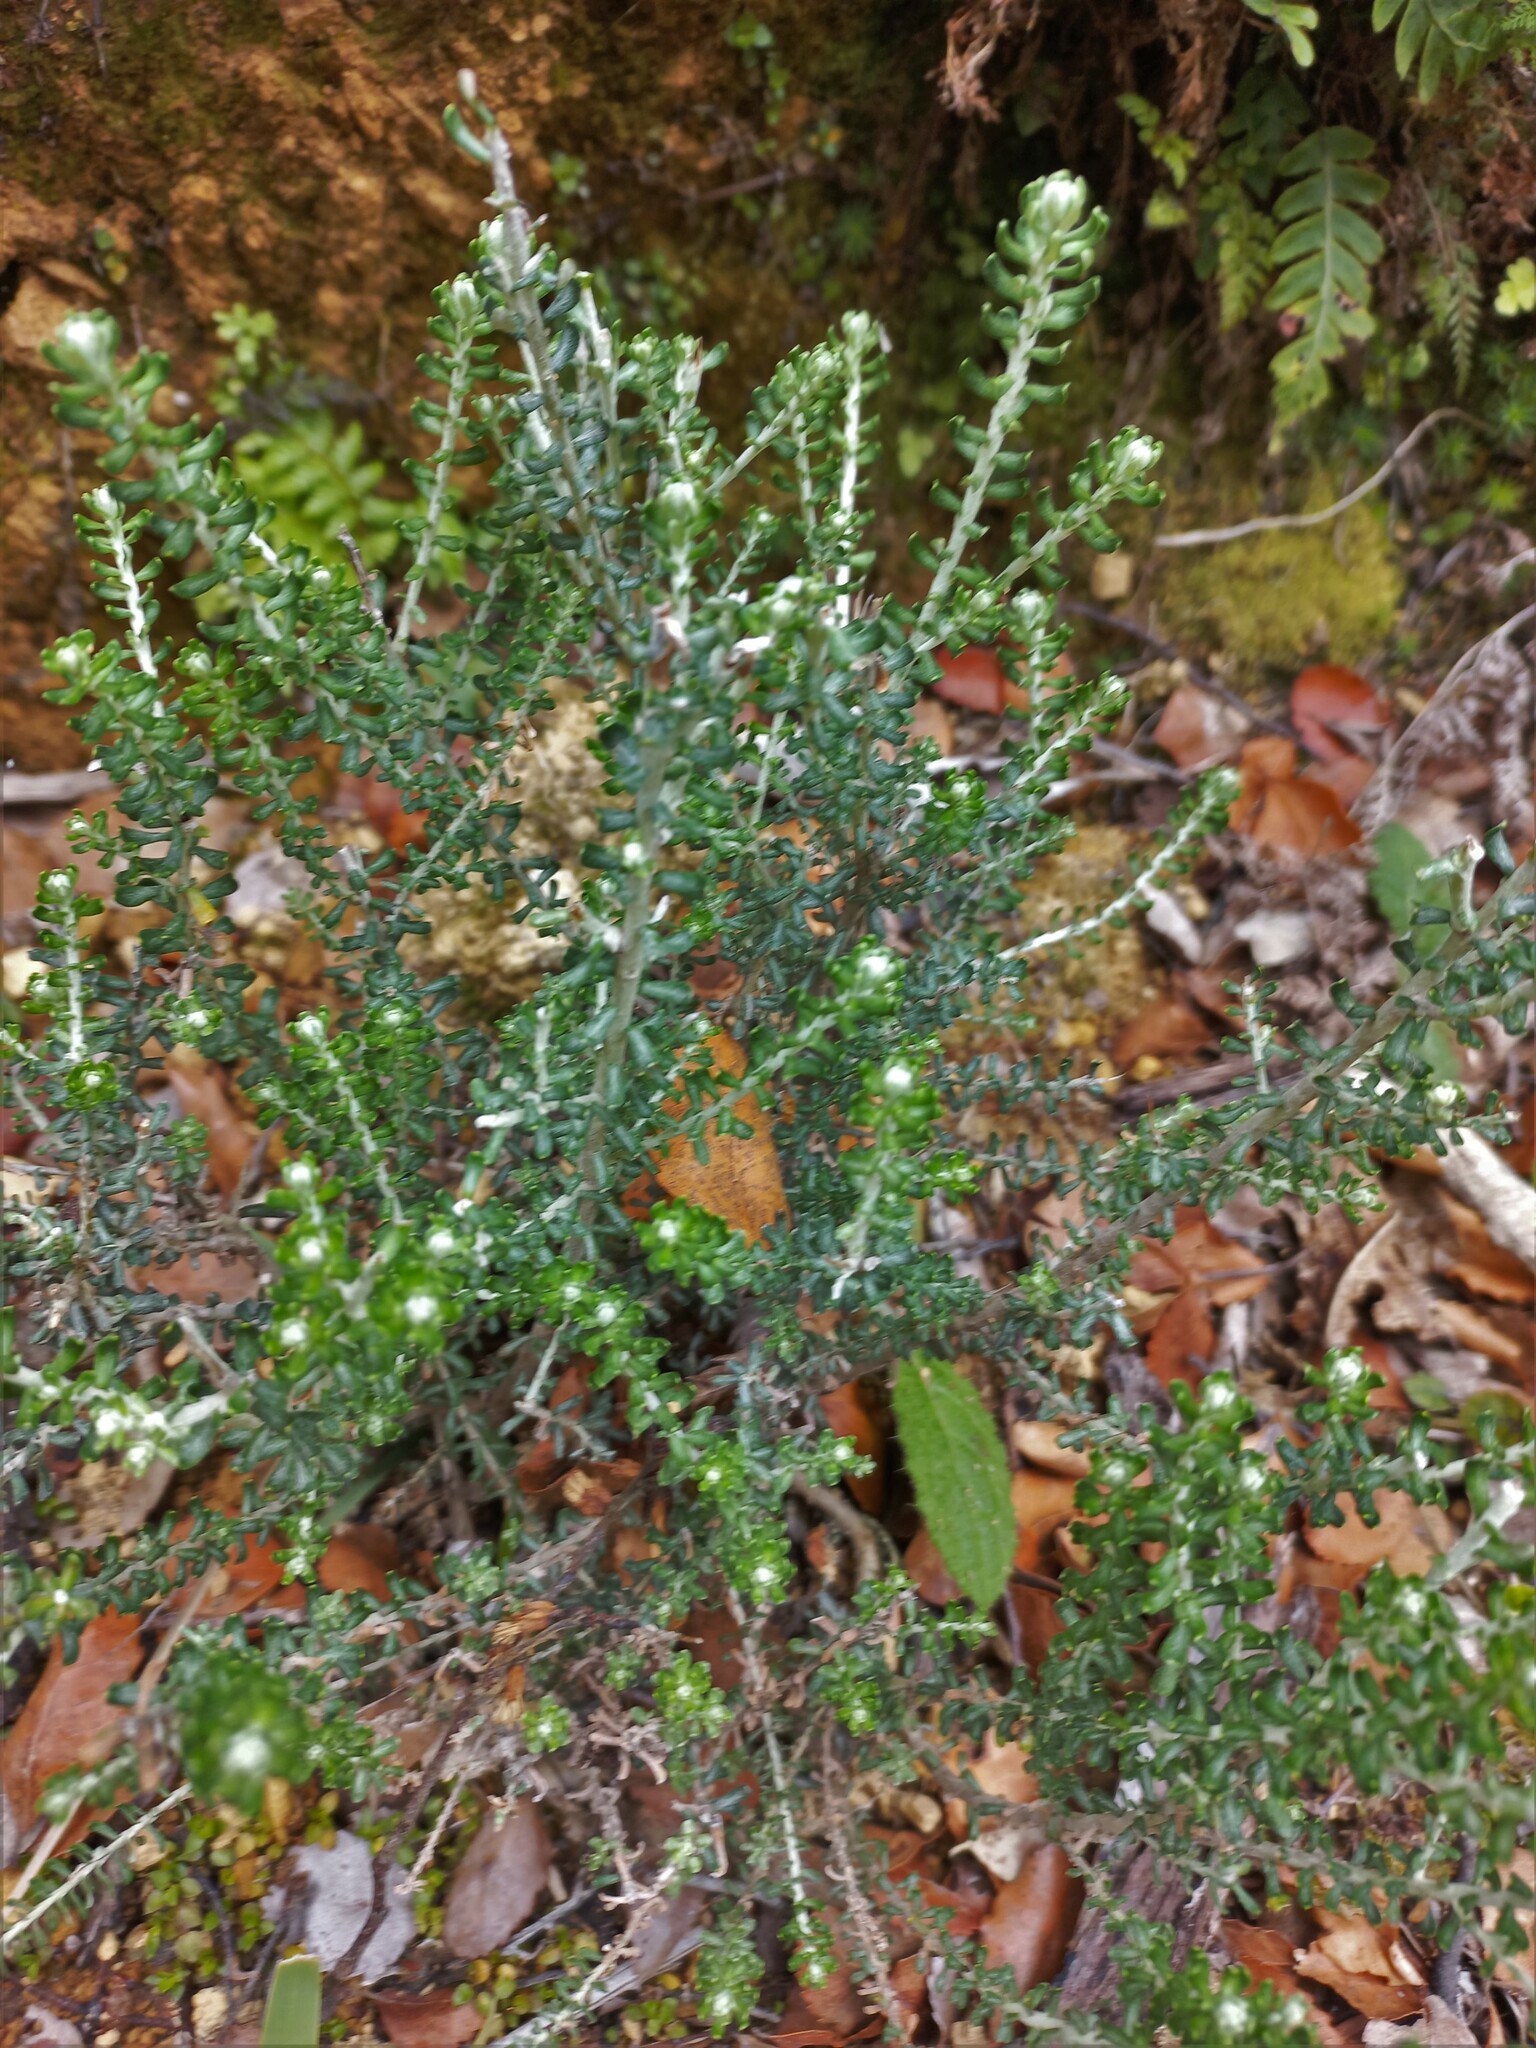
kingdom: Plantae
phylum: Tracheophyta
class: Magnoliopsida
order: Asterales
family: Asteraceae
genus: Ozothamnus
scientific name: Ozothamnus leptophyllus
